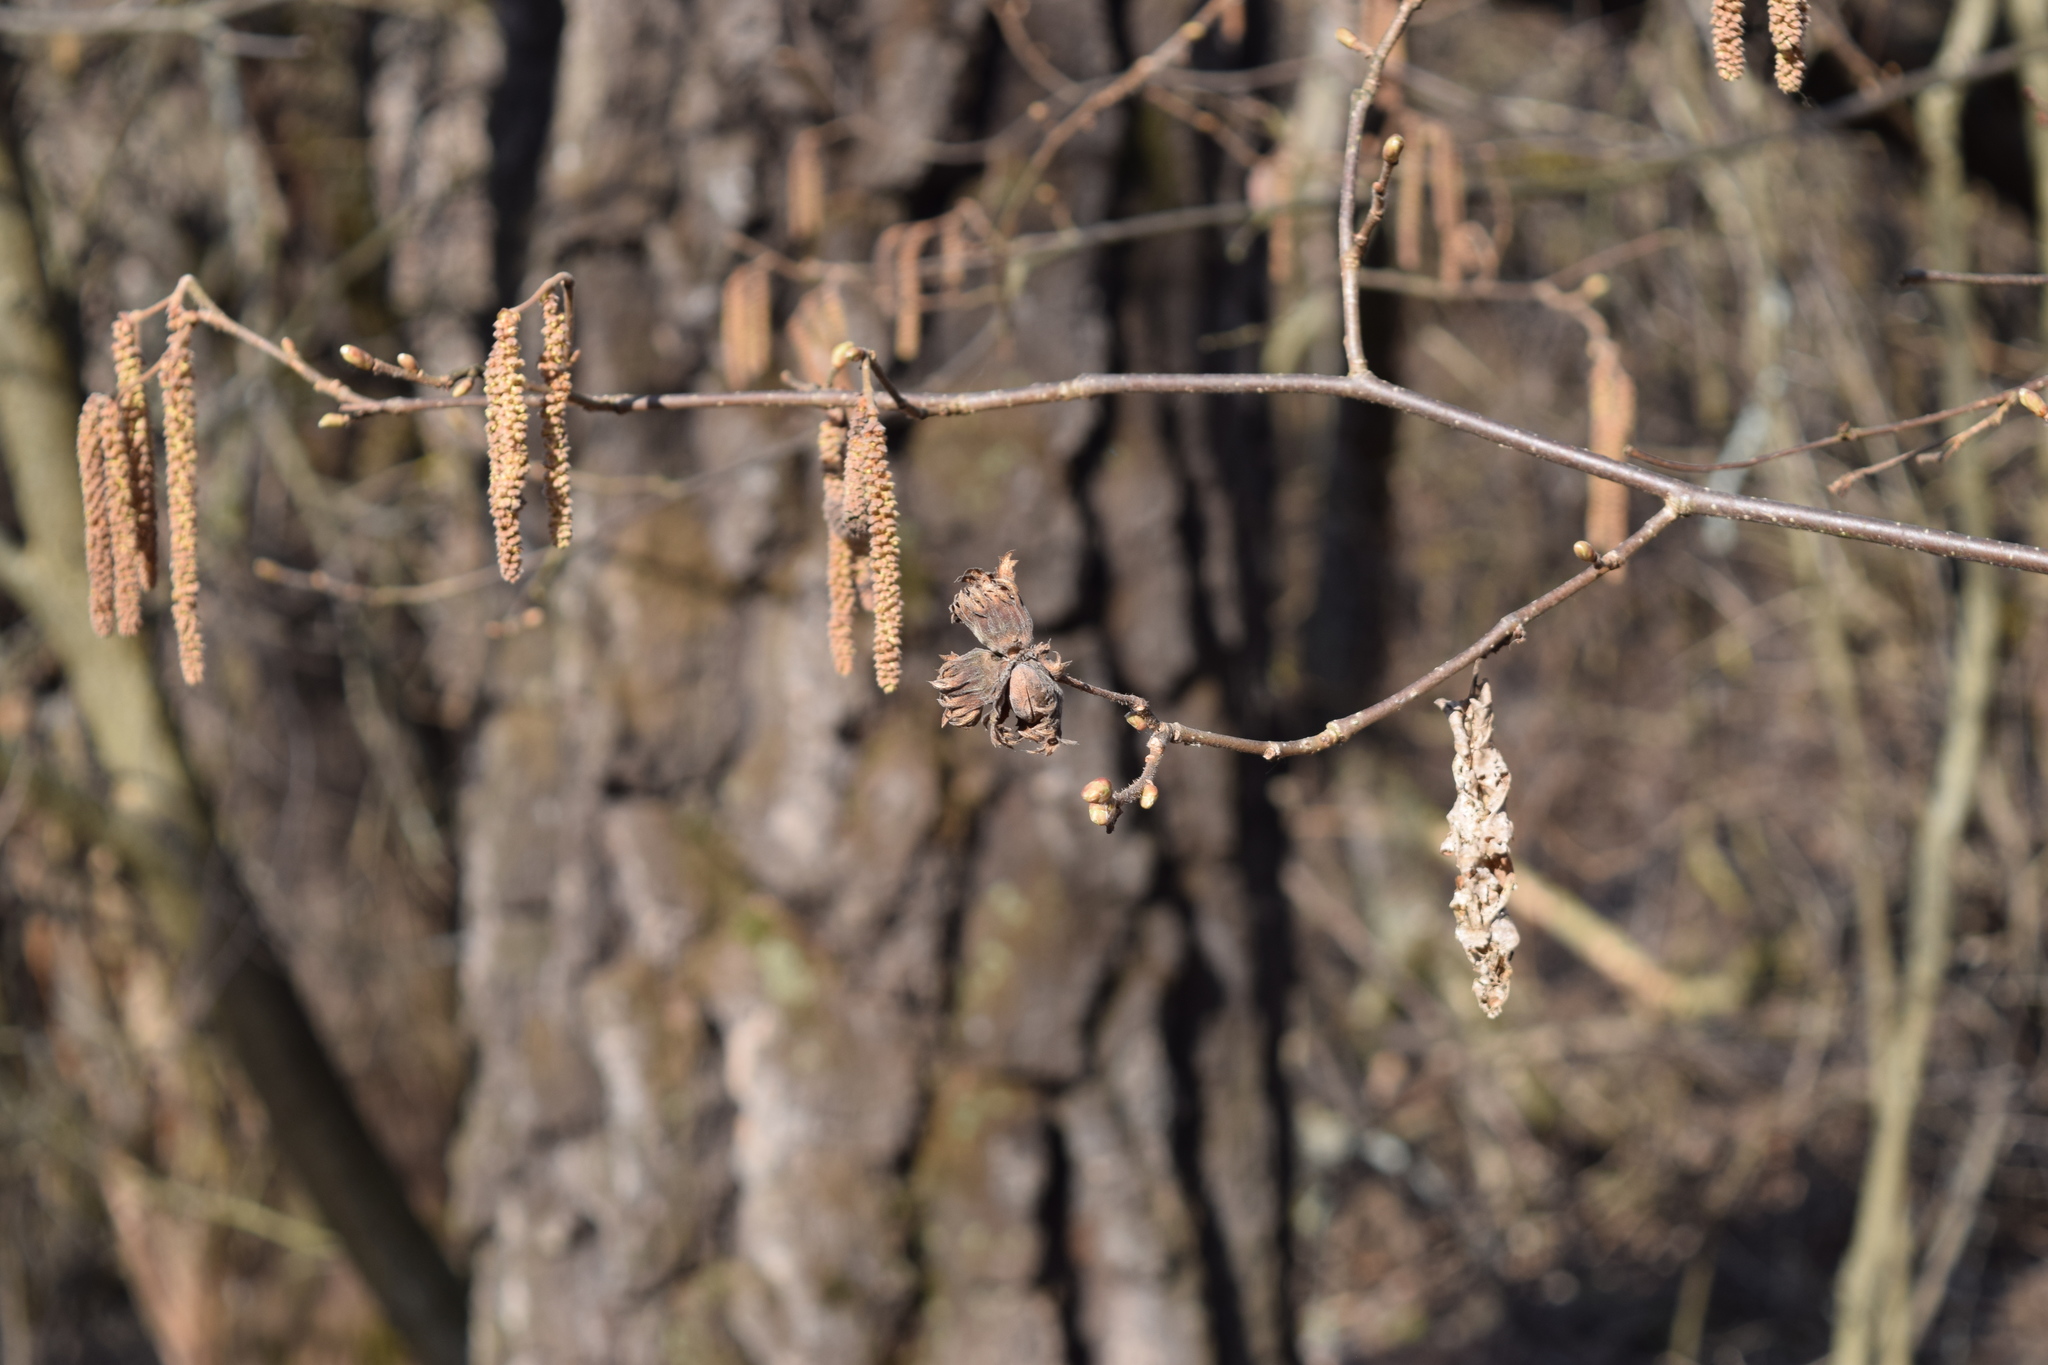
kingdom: Plantae
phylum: Tracheophyta
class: Magnoliopsida
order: Fagales
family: Betulaceae
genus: Corylus
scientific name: Corylus avellana
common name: European hazel
